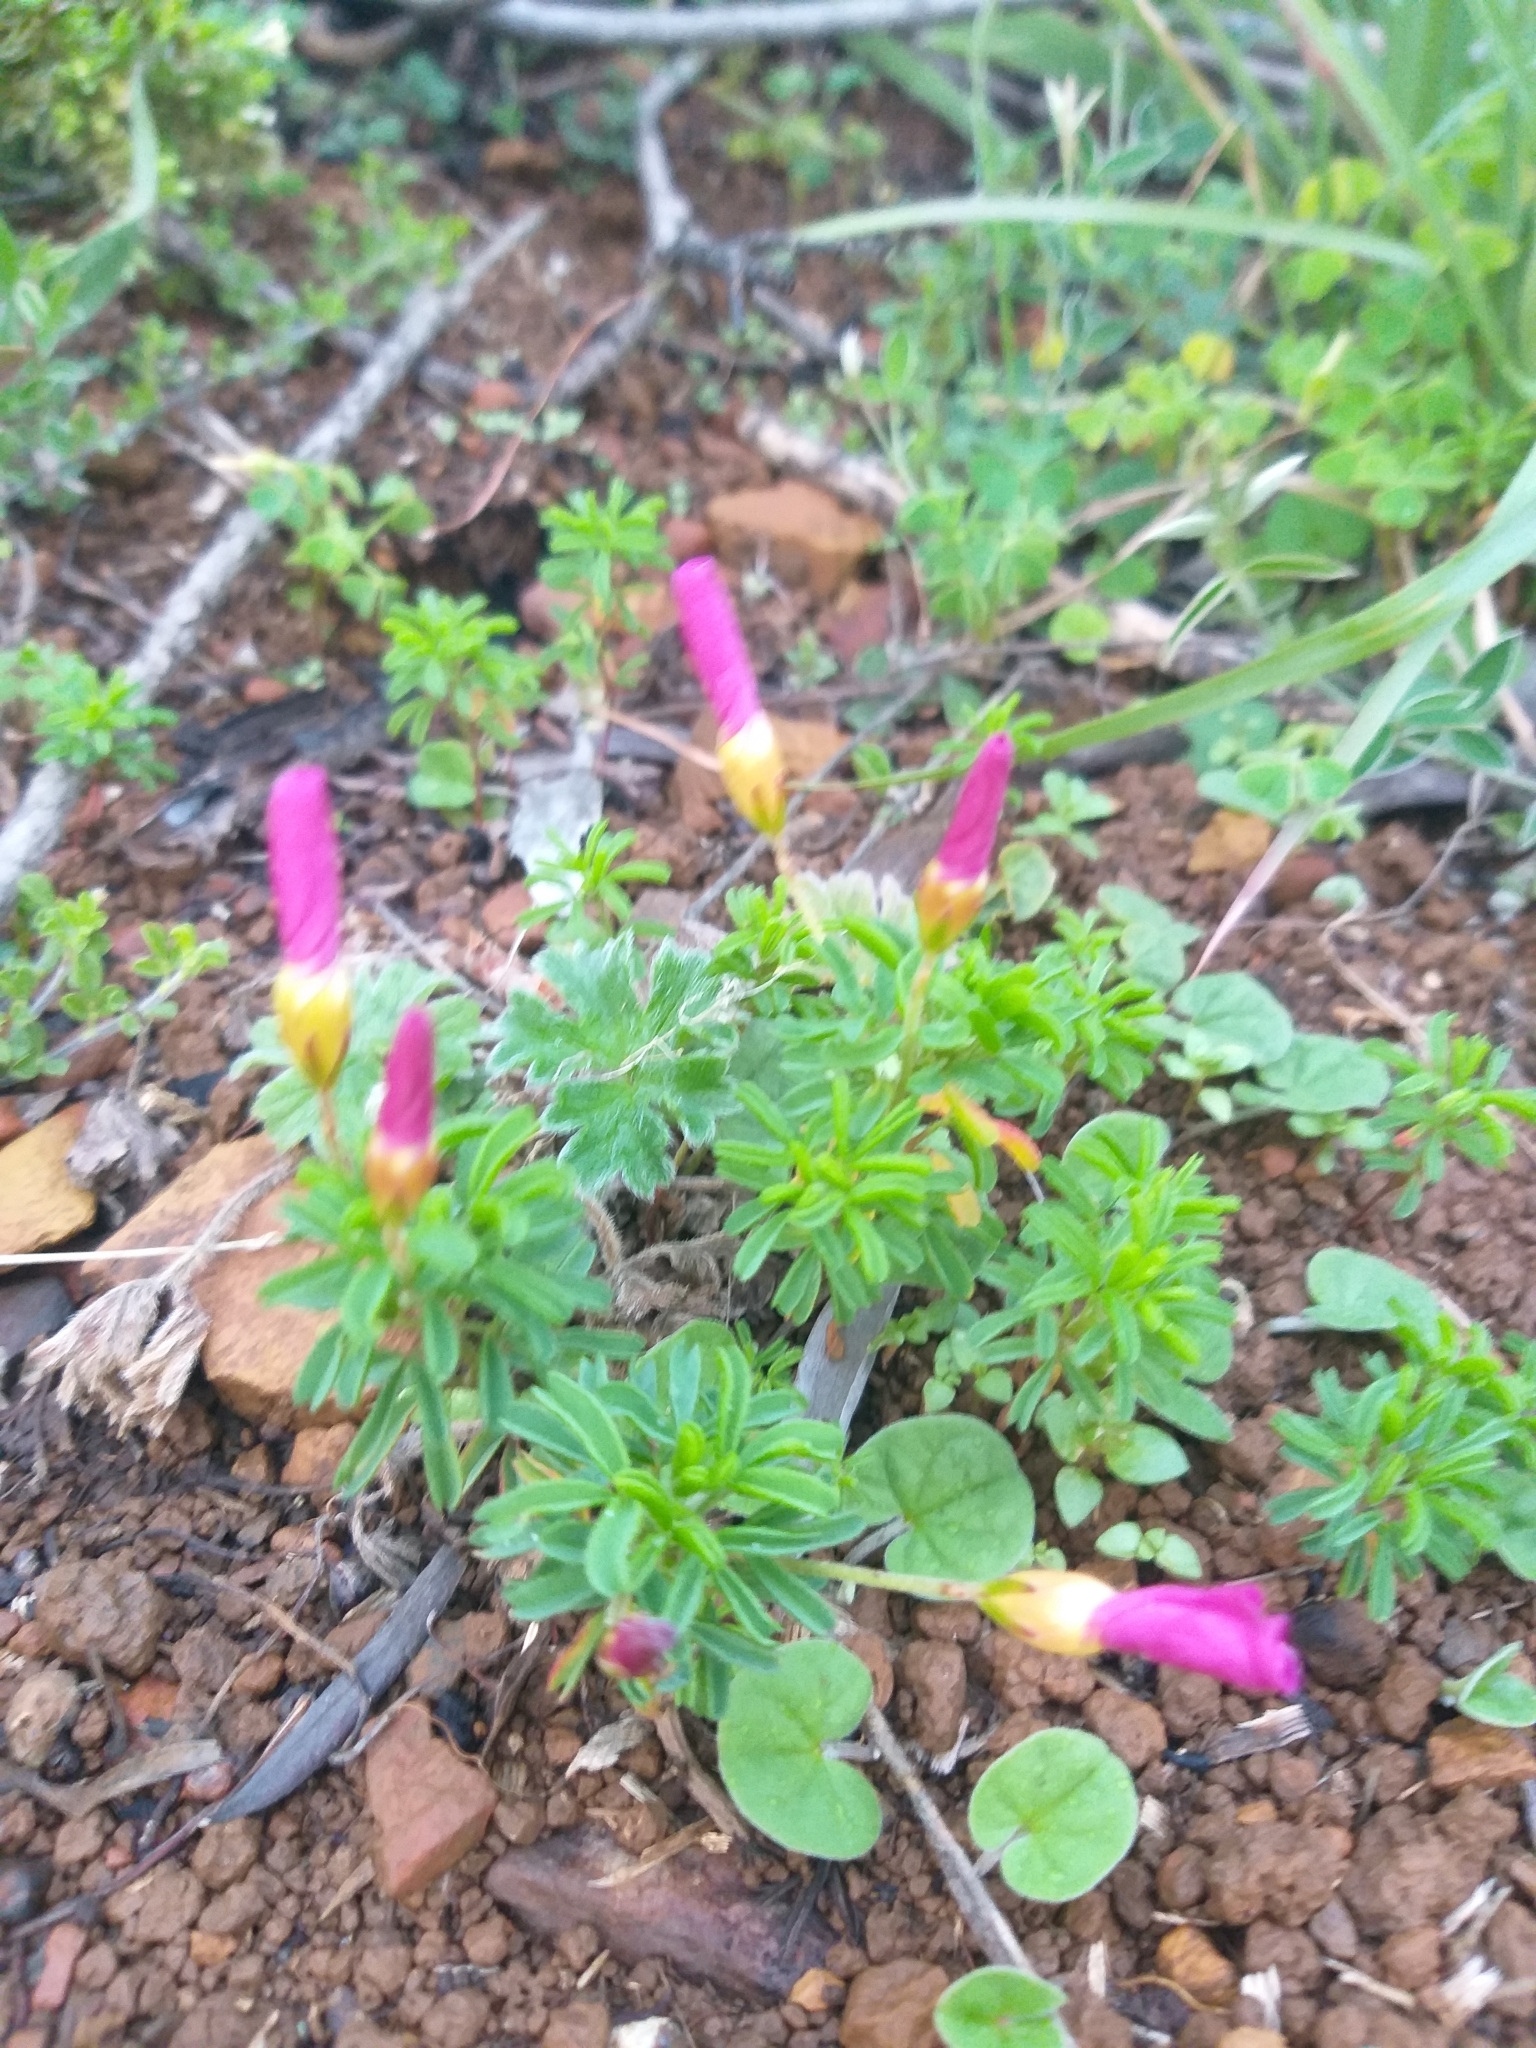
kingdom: Plantae
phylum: Tracheophyta
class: Magnoliopsida
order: Oxalidales
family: Oxalidaceae
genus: Oxalis
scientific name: Oxalis glabra
